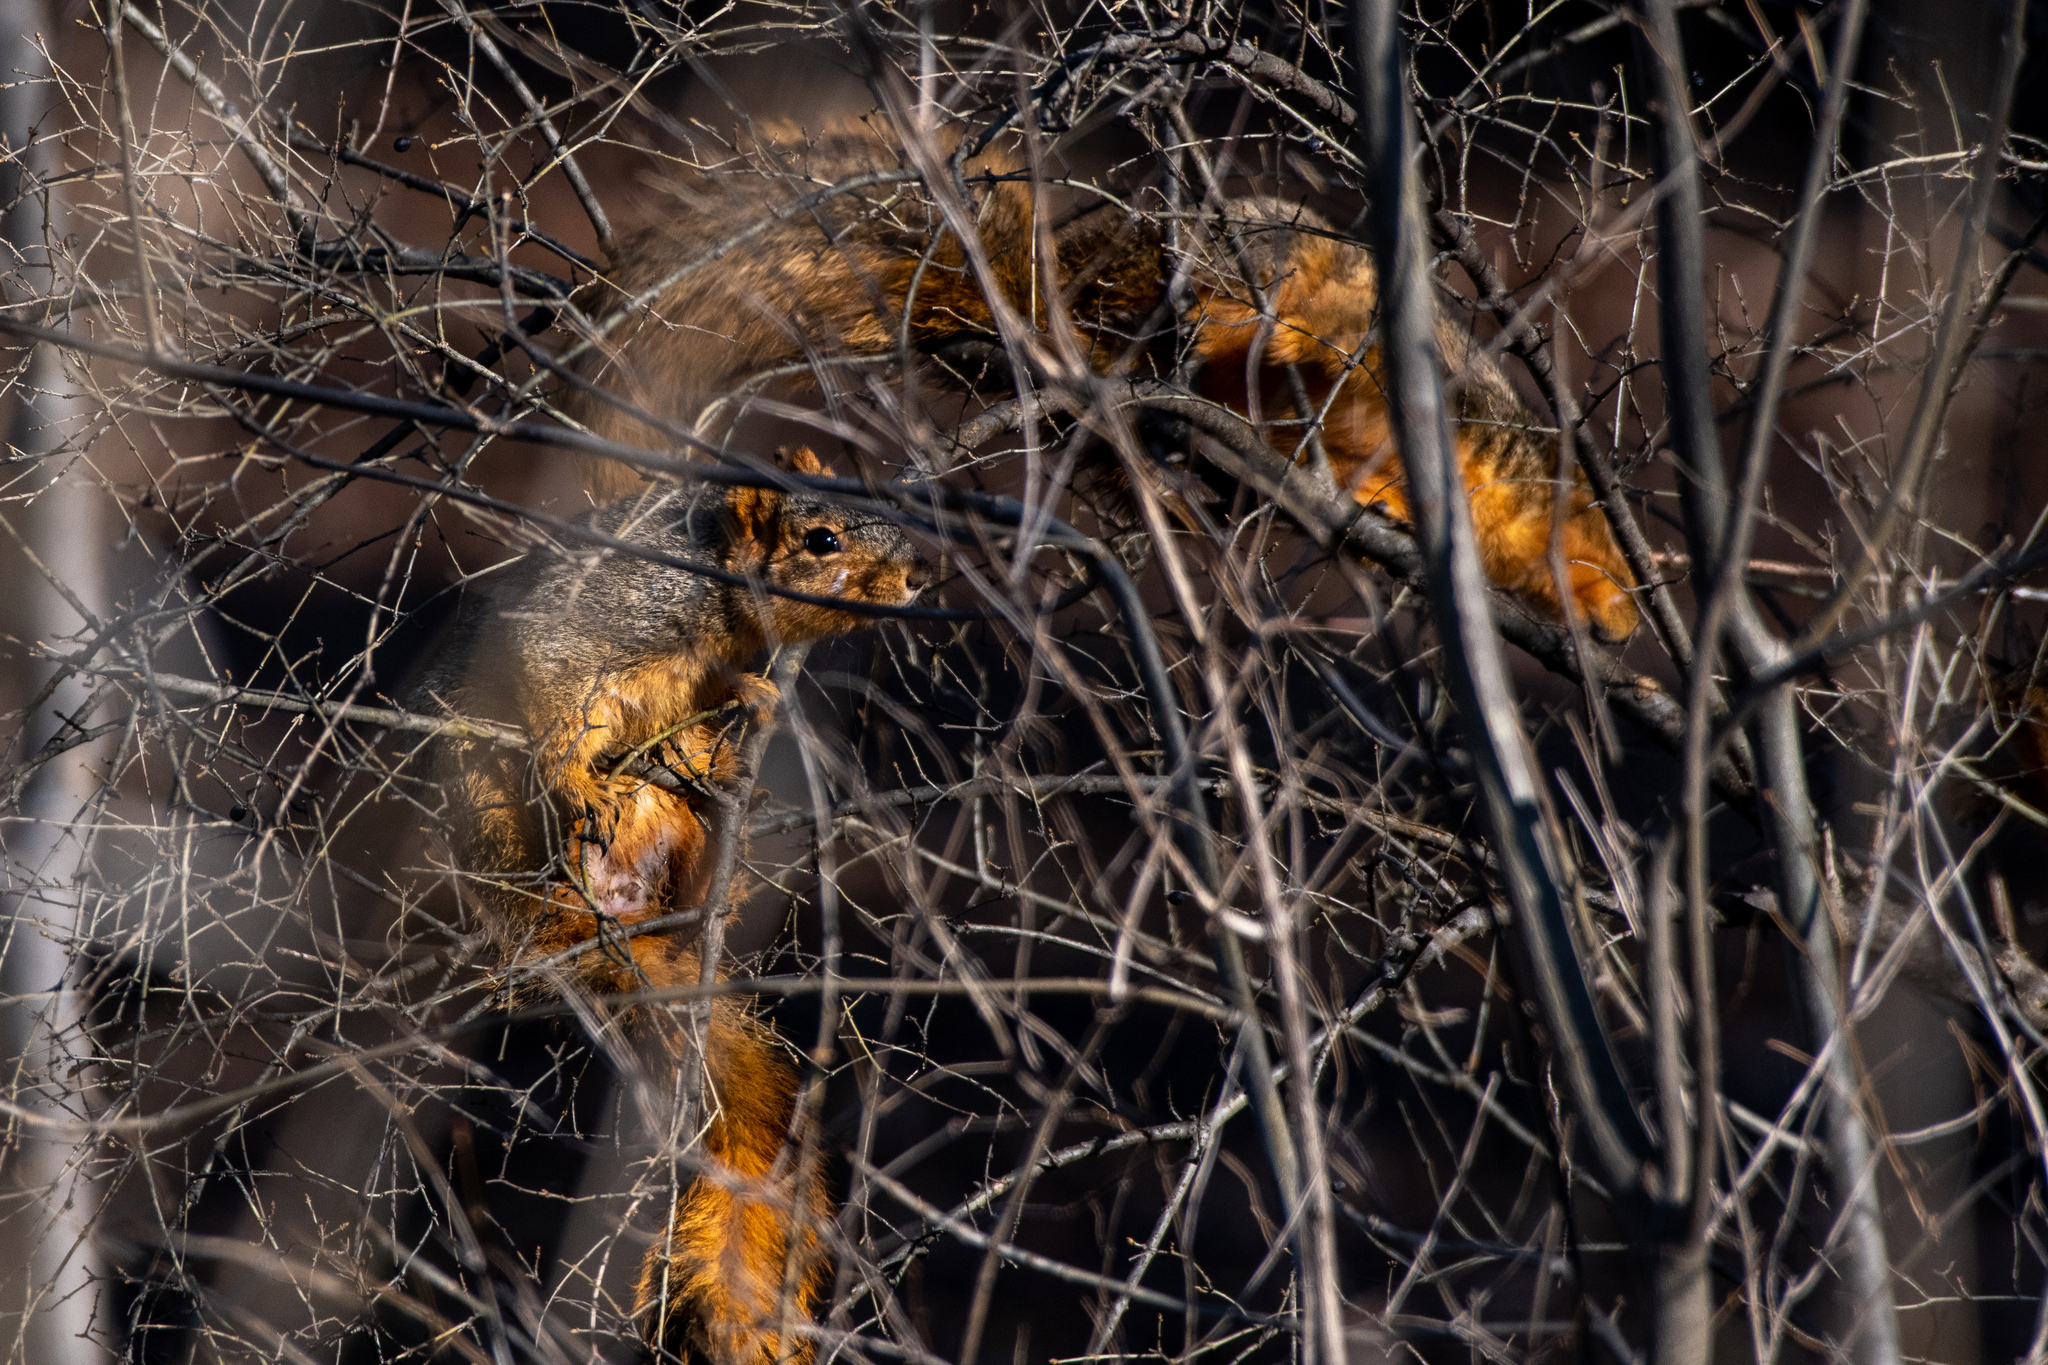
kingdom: Animalia
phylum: Chordata
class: Mammalia
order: Rodentia
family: Sciuridae
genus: Sciurus
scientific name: Sciurus niger
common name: Fox squirrel
